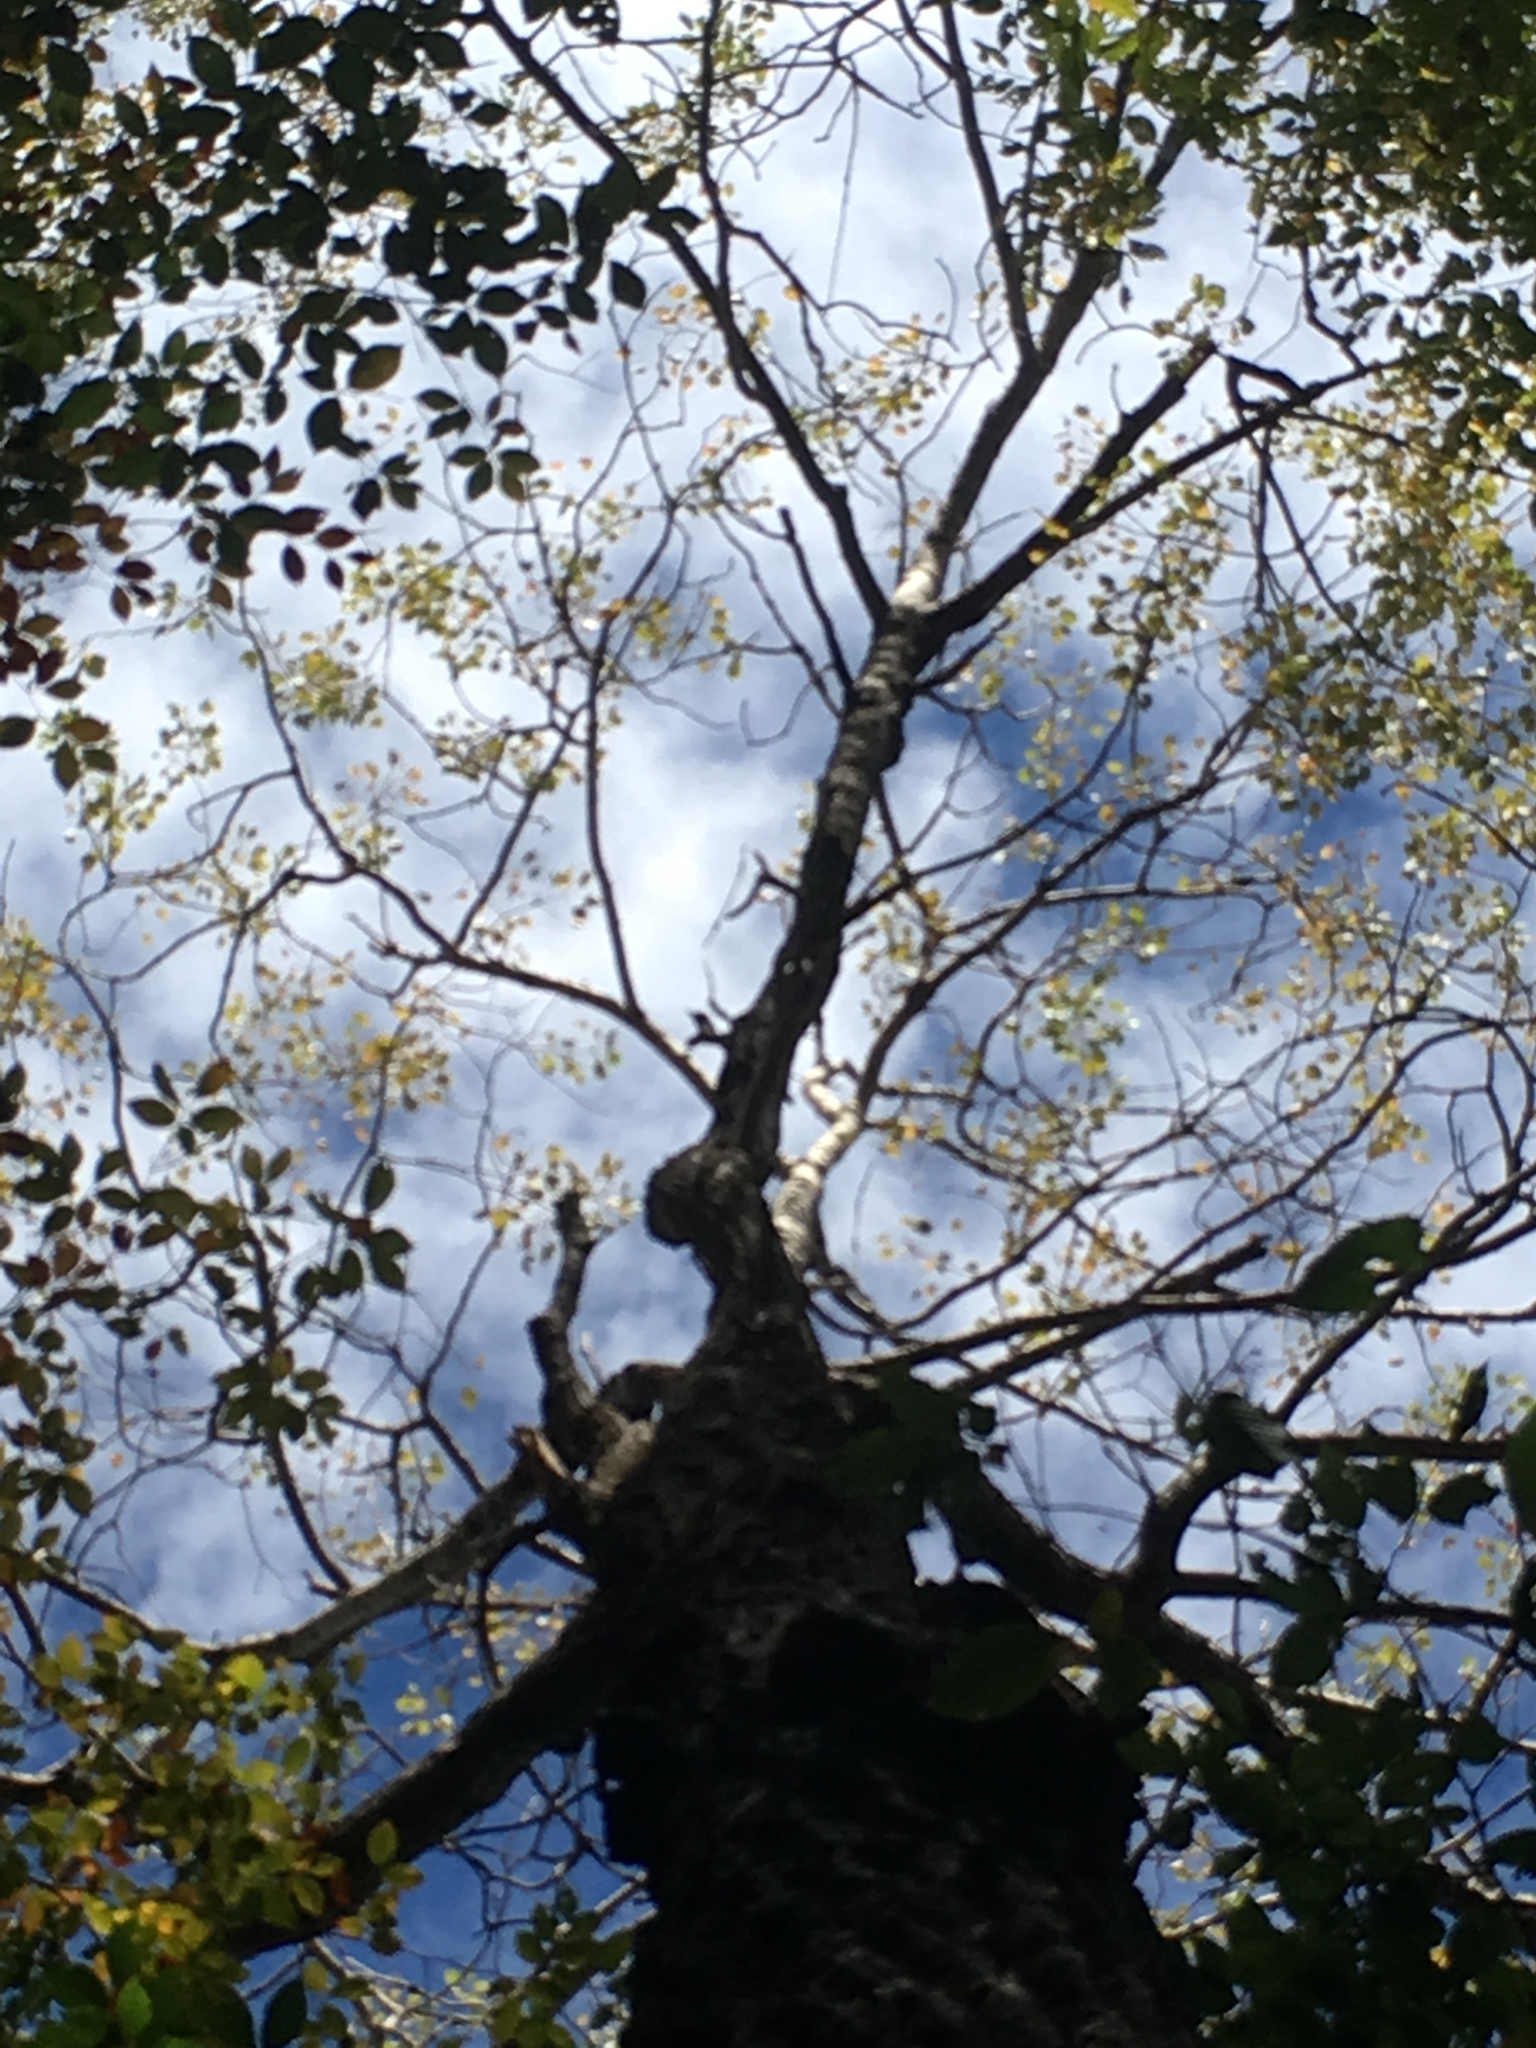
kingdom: Plantae
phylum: Tracheophyta
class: Magnoliopsida
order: Malpighiales
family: Salicaceae
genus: Populus
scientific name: Populus grandidentata
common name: Bigtooth aspen
